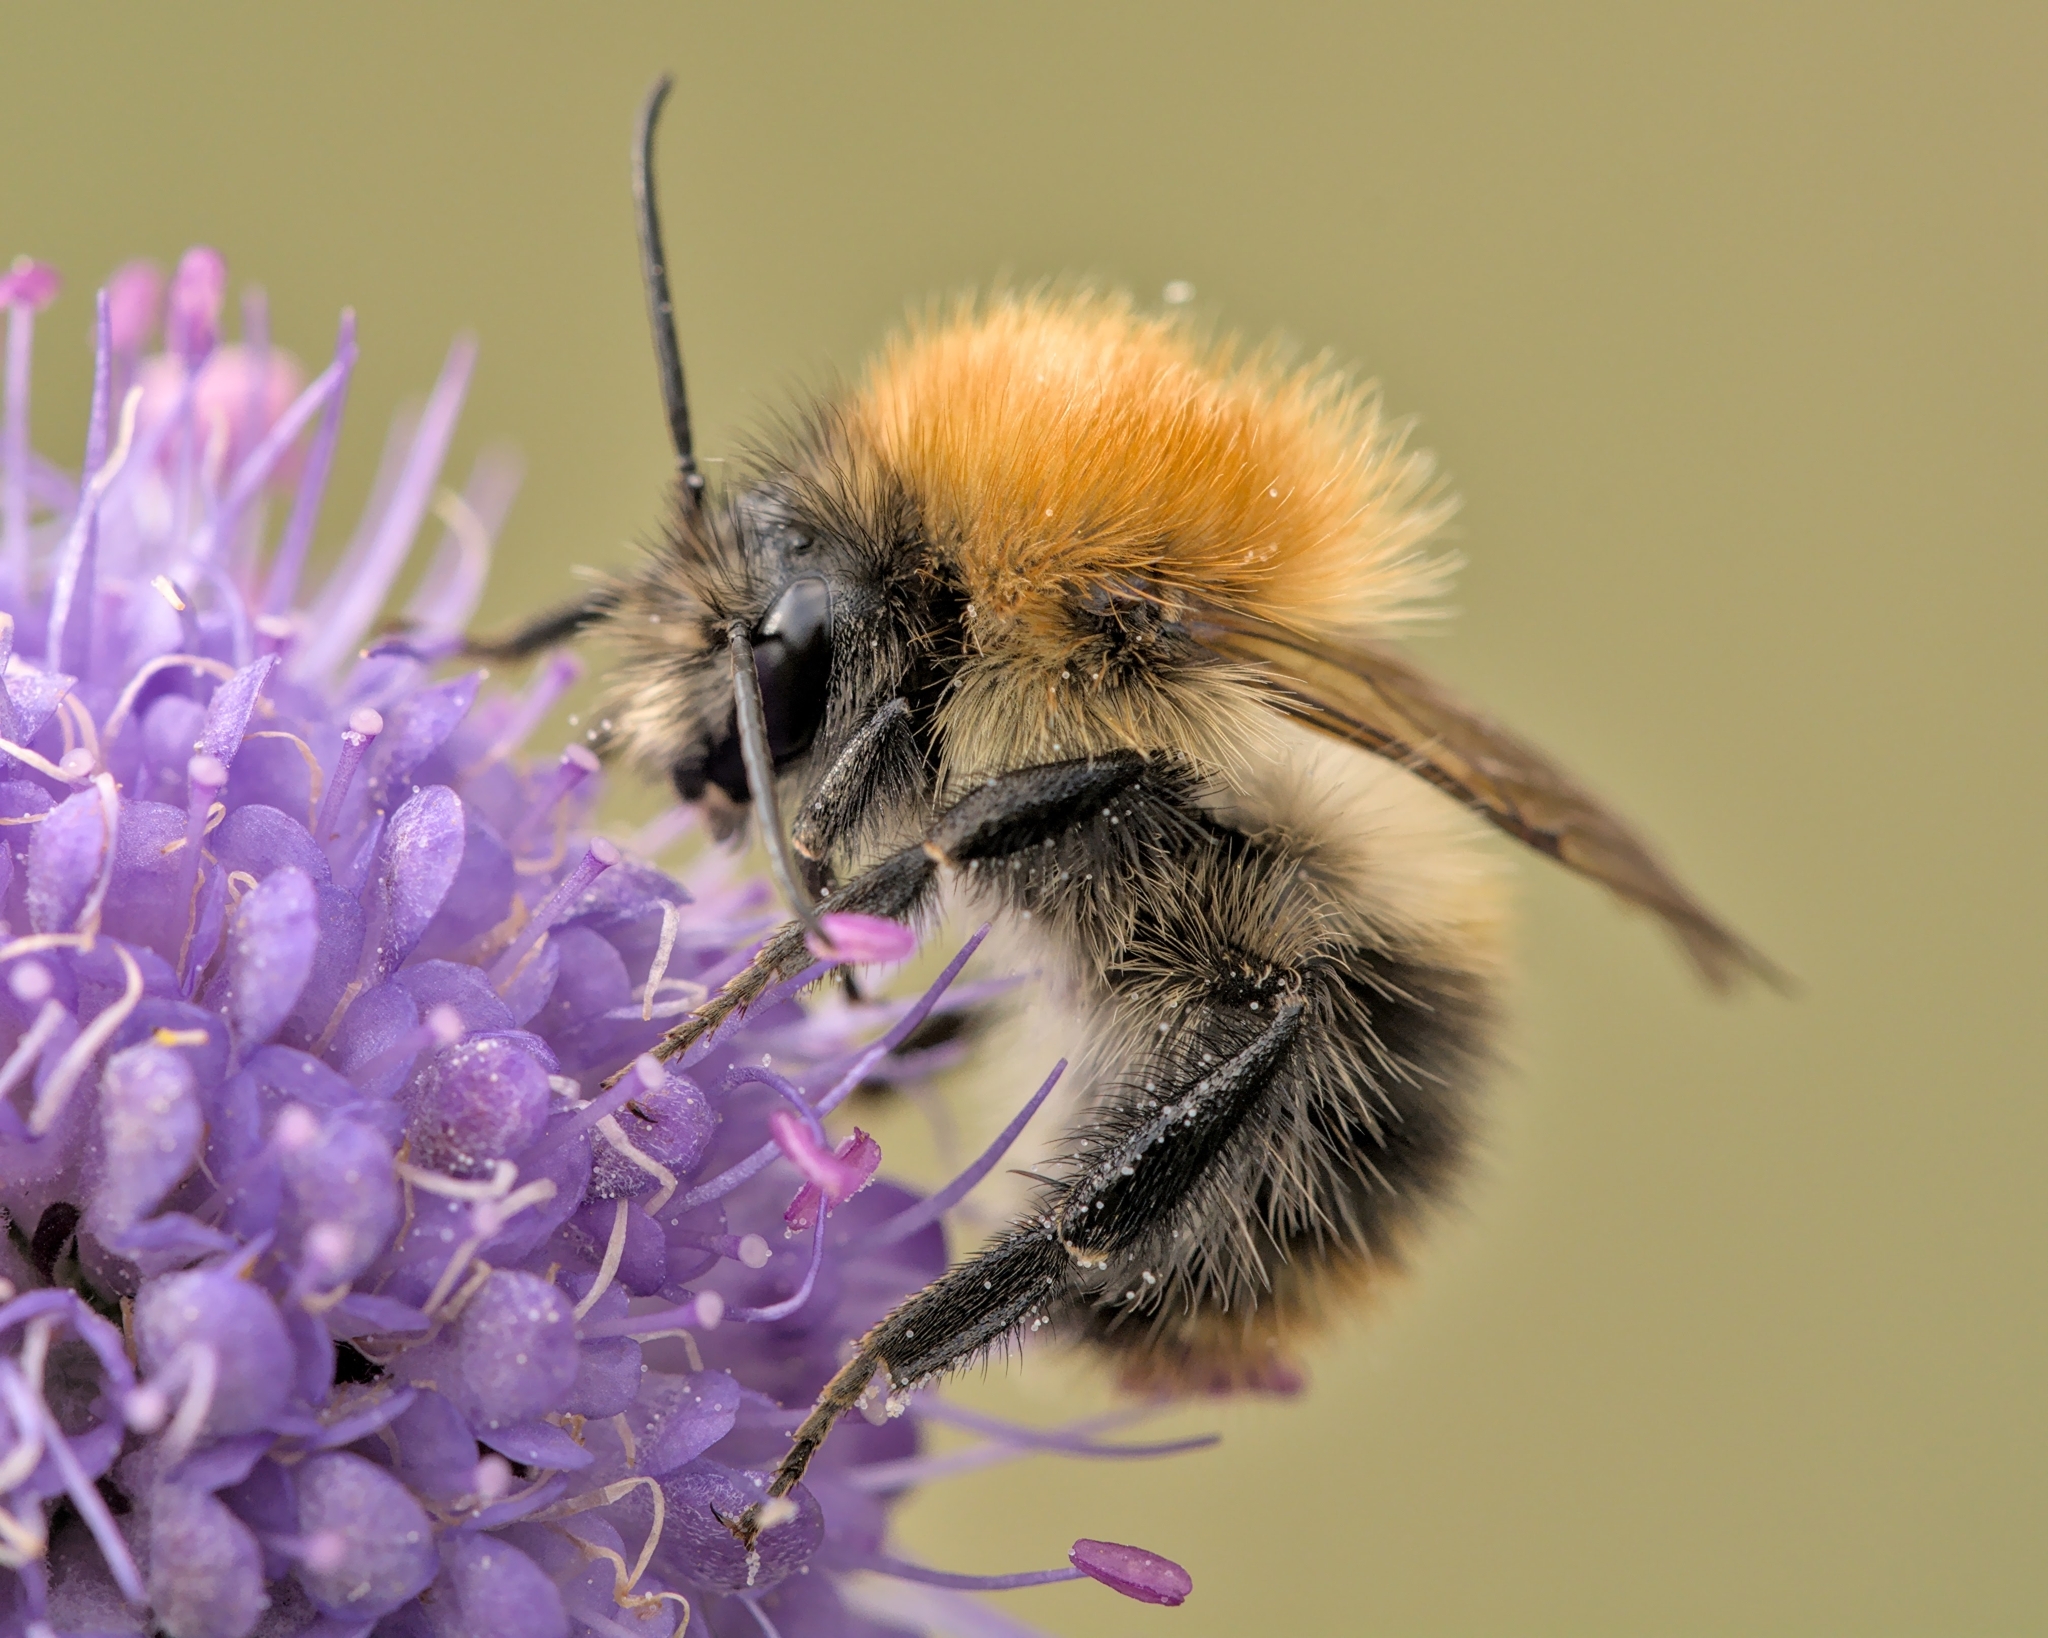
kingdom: Animalia
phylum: Arthropoda
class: Insecta
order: Hymenoptera
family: Apidae
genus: Bombus
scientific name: Bombus pascuorum
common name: Common carder bee
